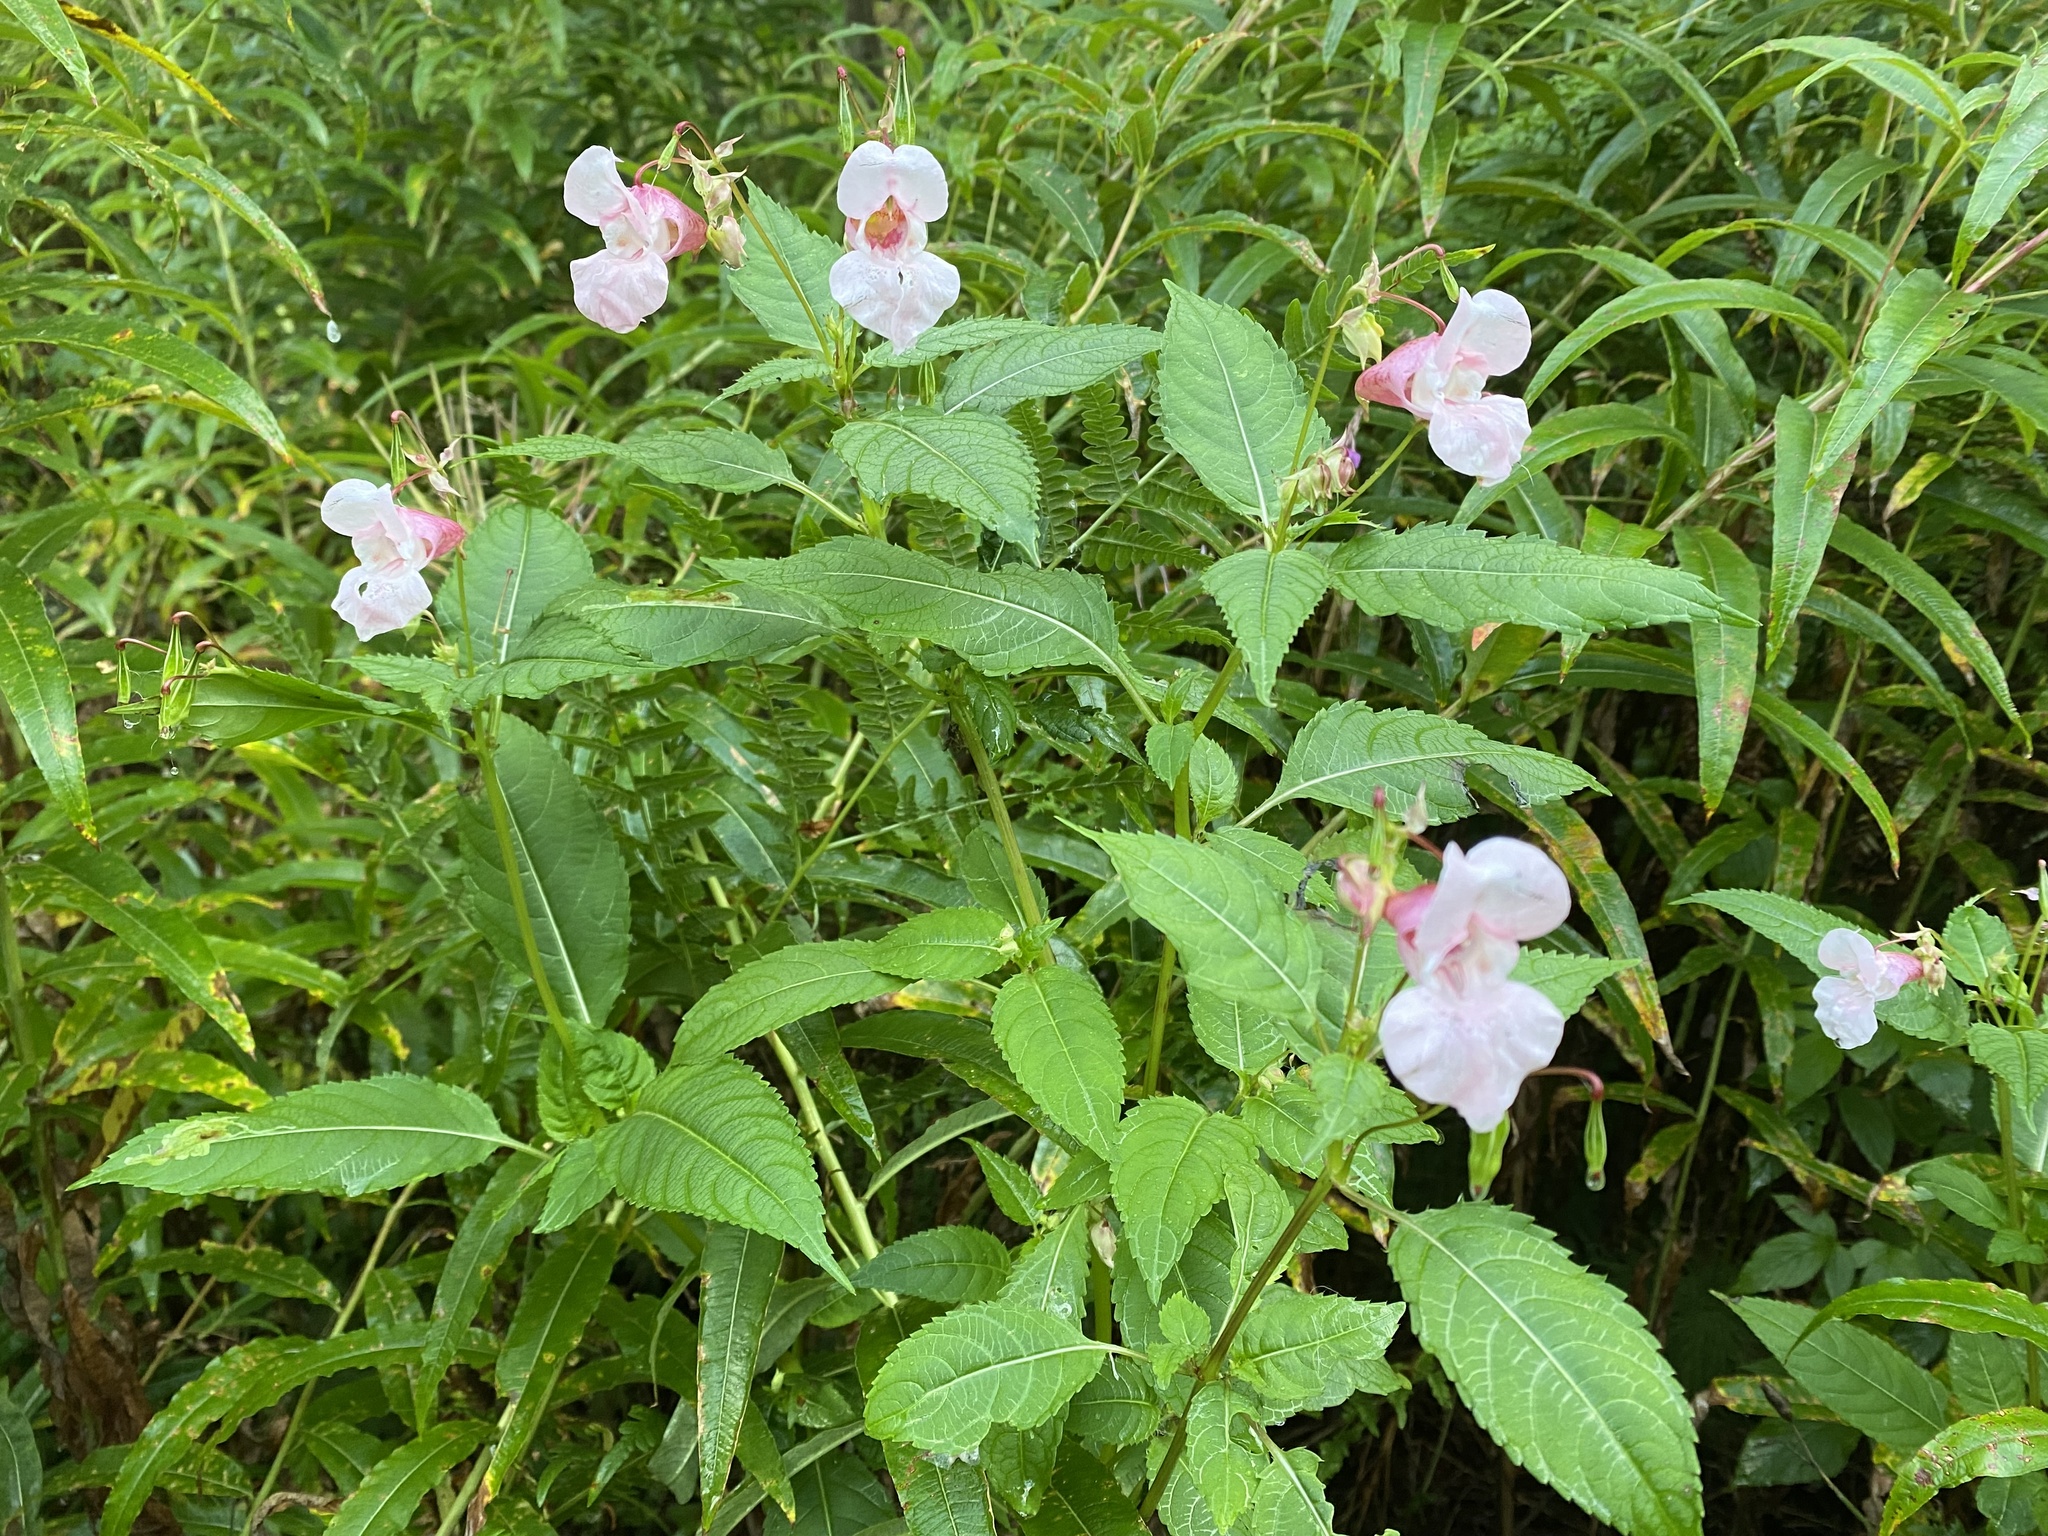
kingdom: Plantae
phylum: Tracheophyta
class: Magnoliopsida
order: Ericales
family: Balsaminaceae
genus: Impatiens
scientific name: Impatiens glandulifera
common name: Himalayan balsam
